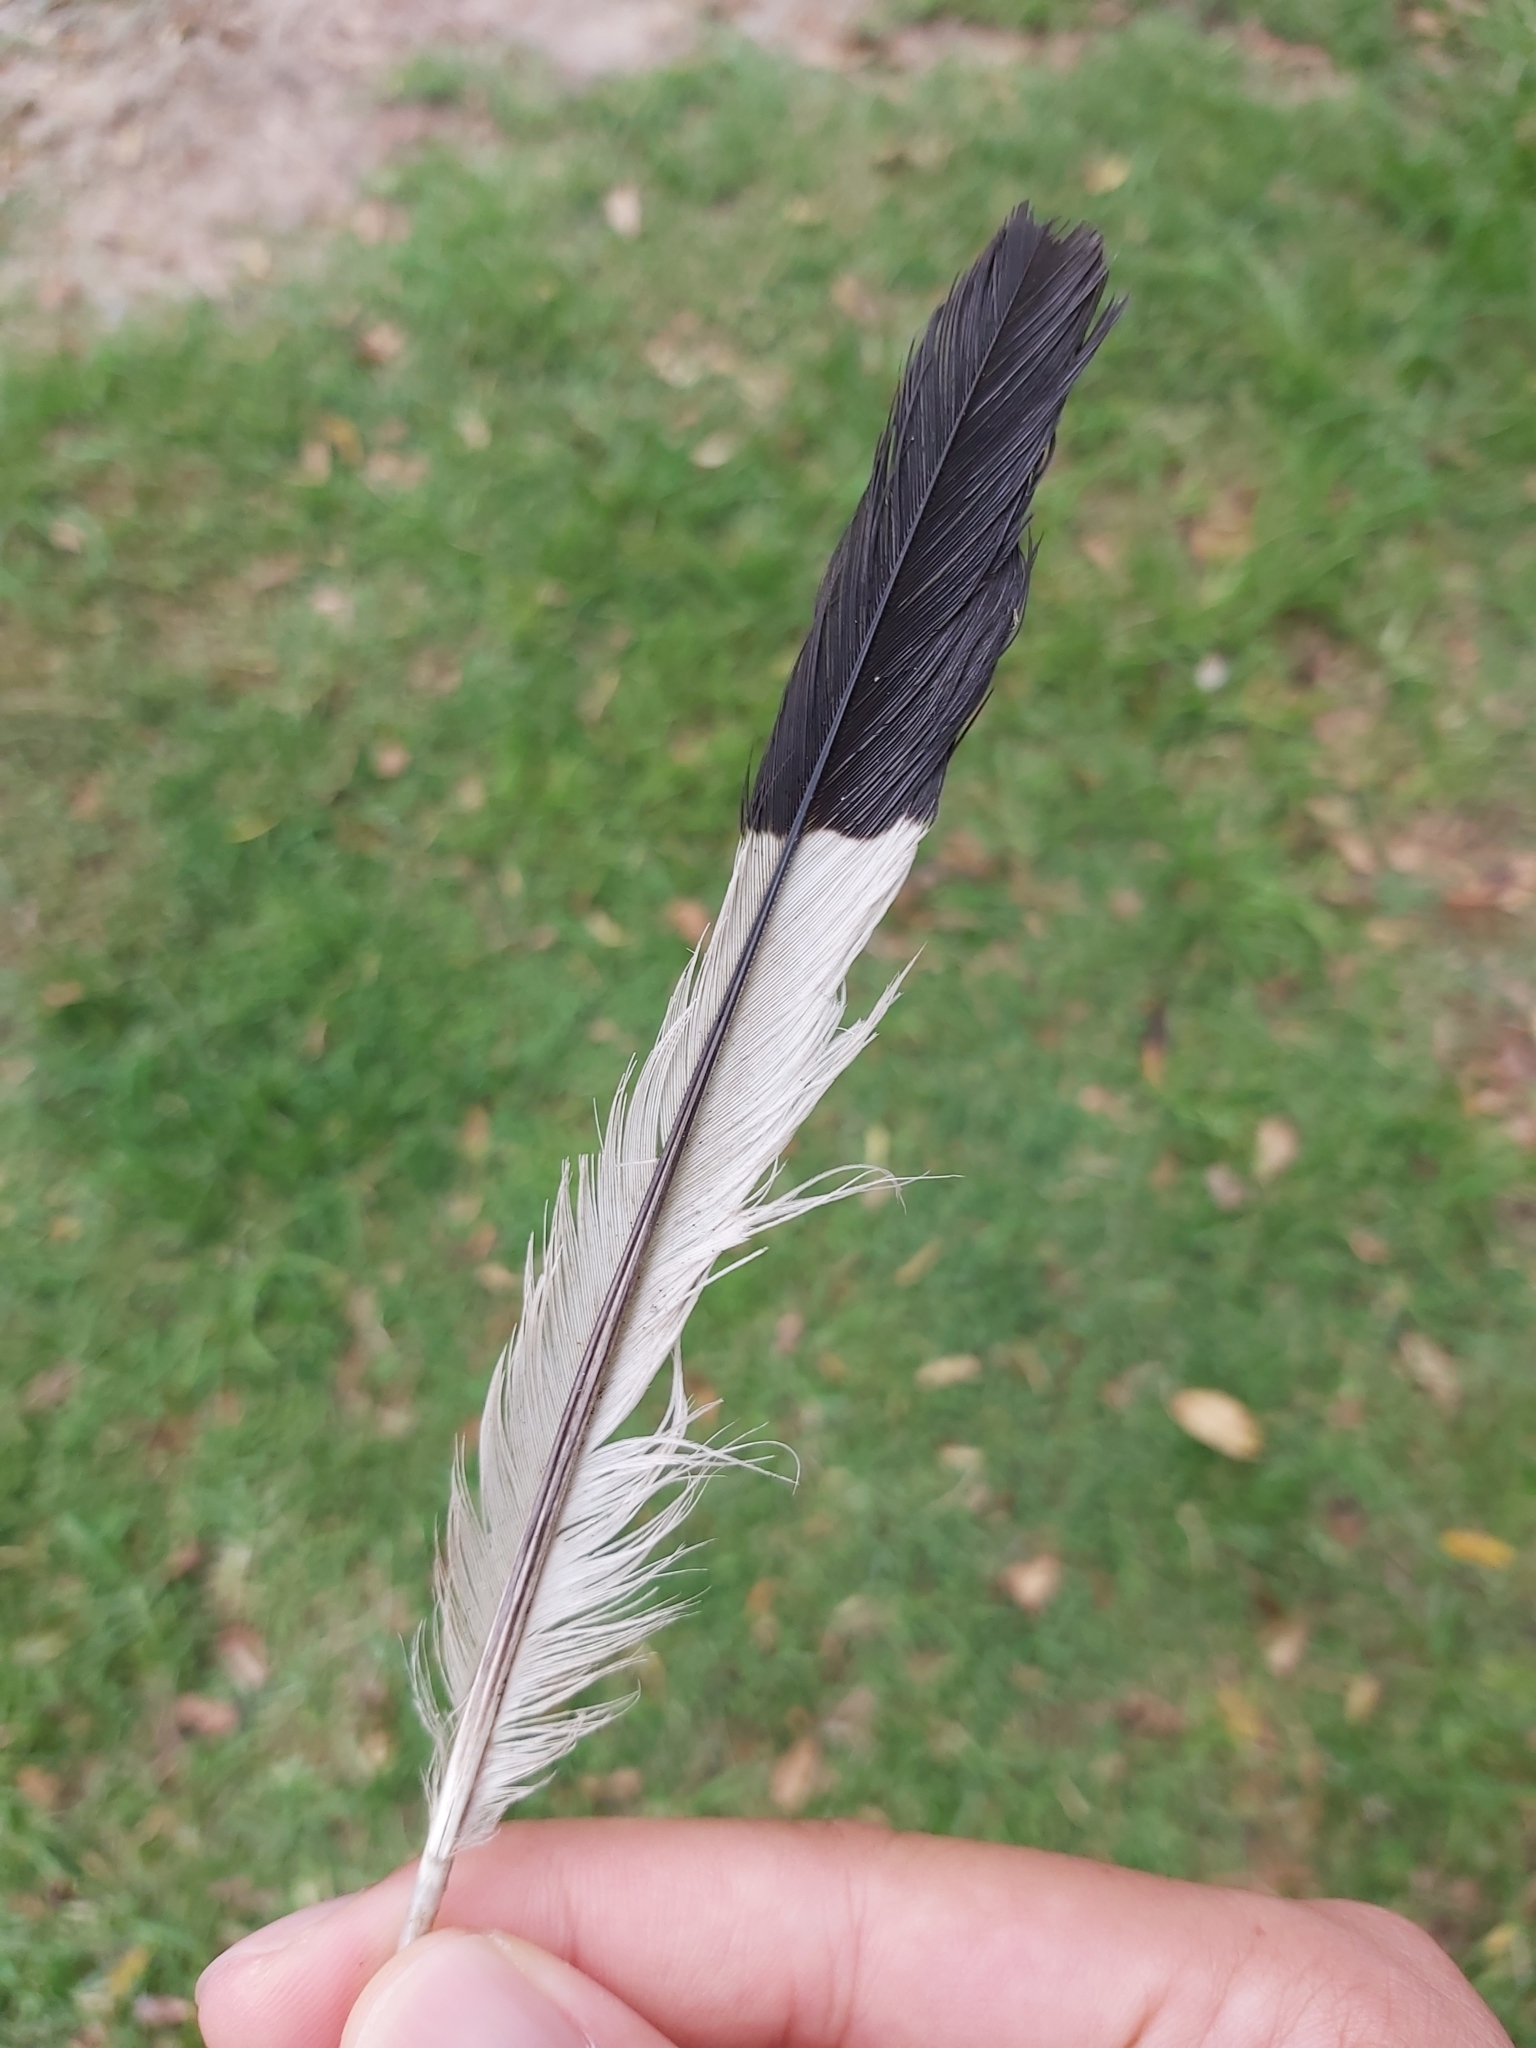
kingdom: Animalia
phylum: Chordata
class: Aves
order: Passeriformes
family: Cracticidae
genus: Gymnorhina
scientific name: Gymnorhina tibicen
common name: Australian magpie
